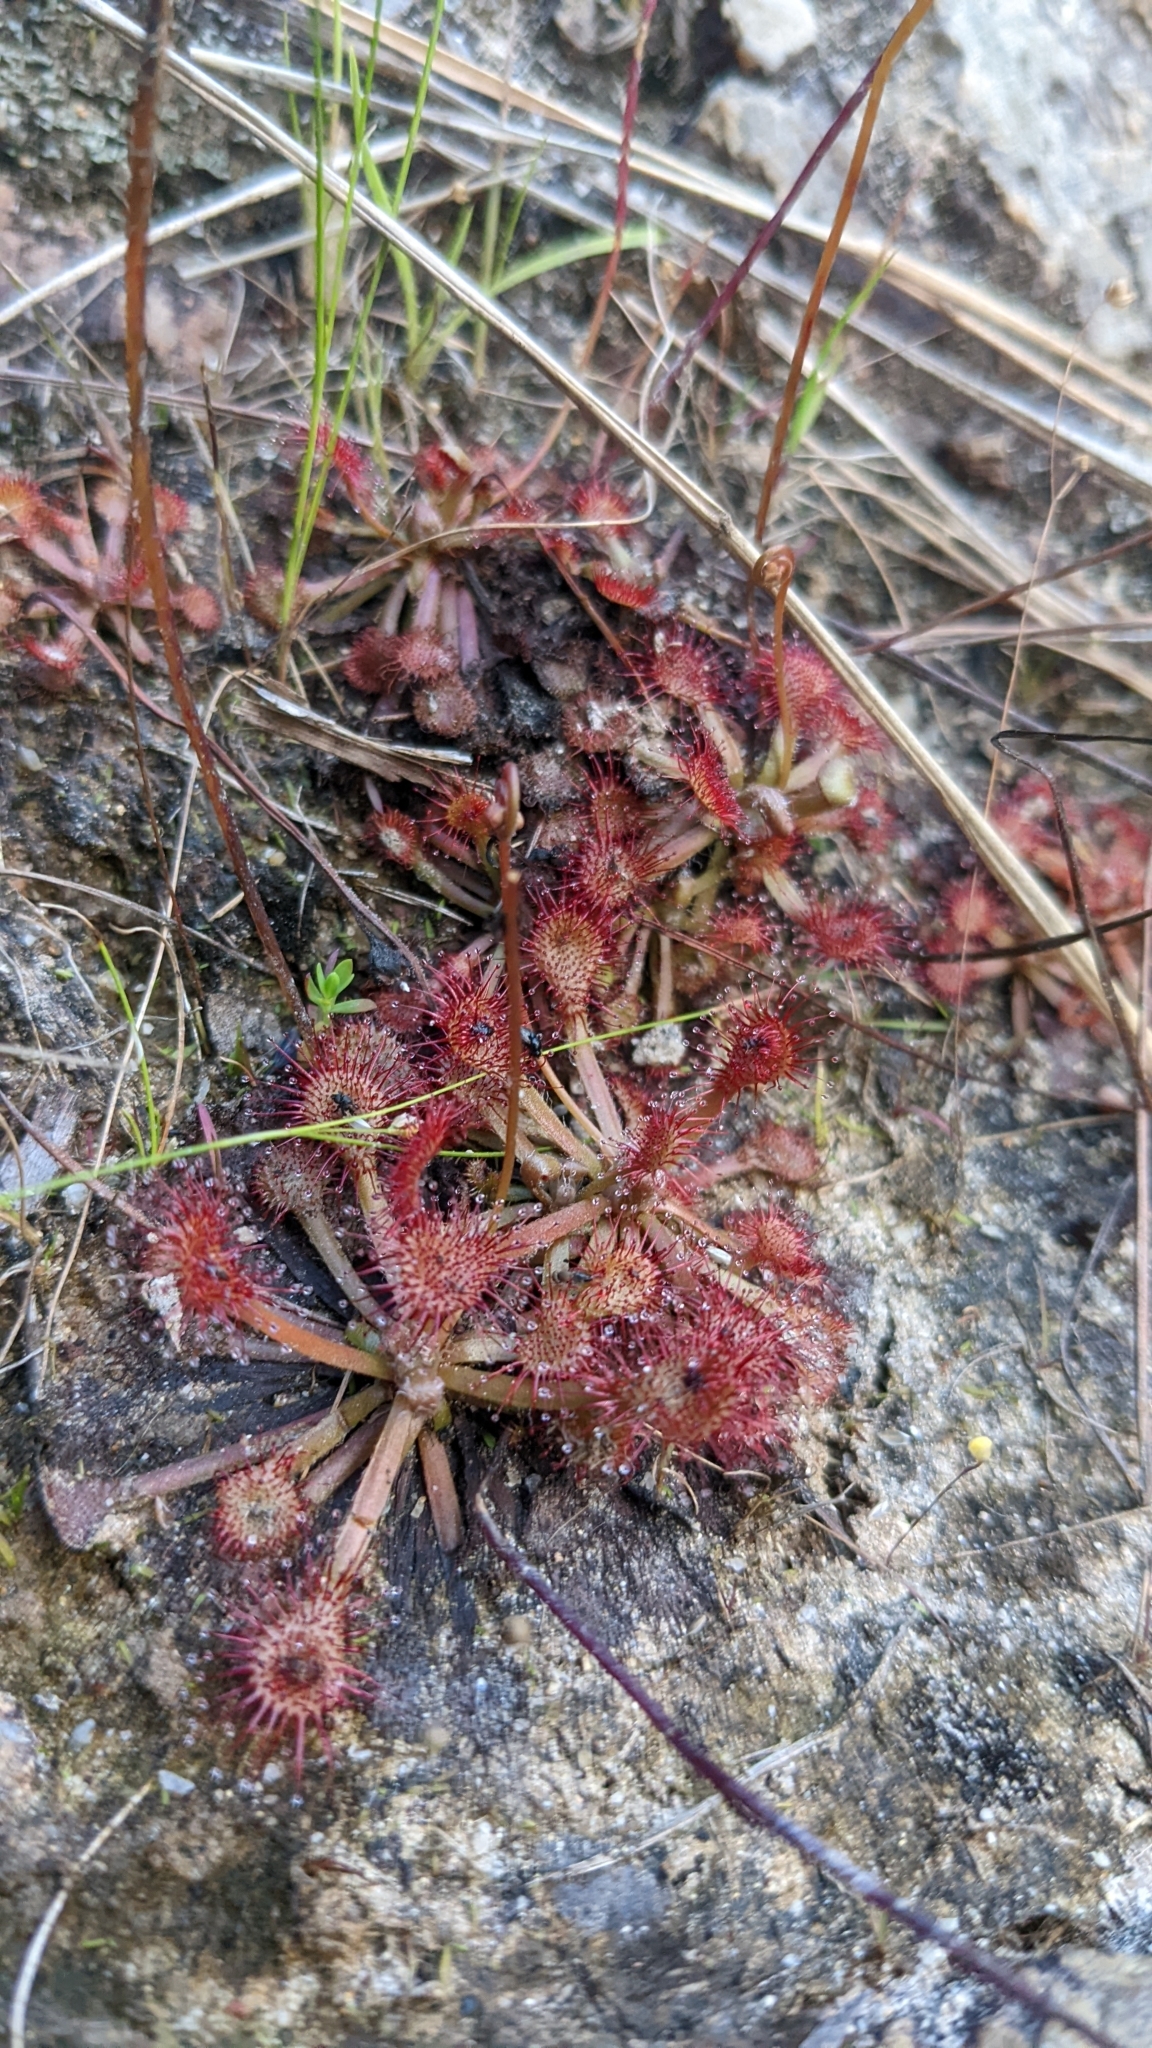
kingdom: Plantae
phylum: Tracheophyta
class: Magnoliopsida
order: Caryophyllales
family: Droseraceae
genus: Drosera
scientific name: Drosera capillaris
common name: Pink sundew
